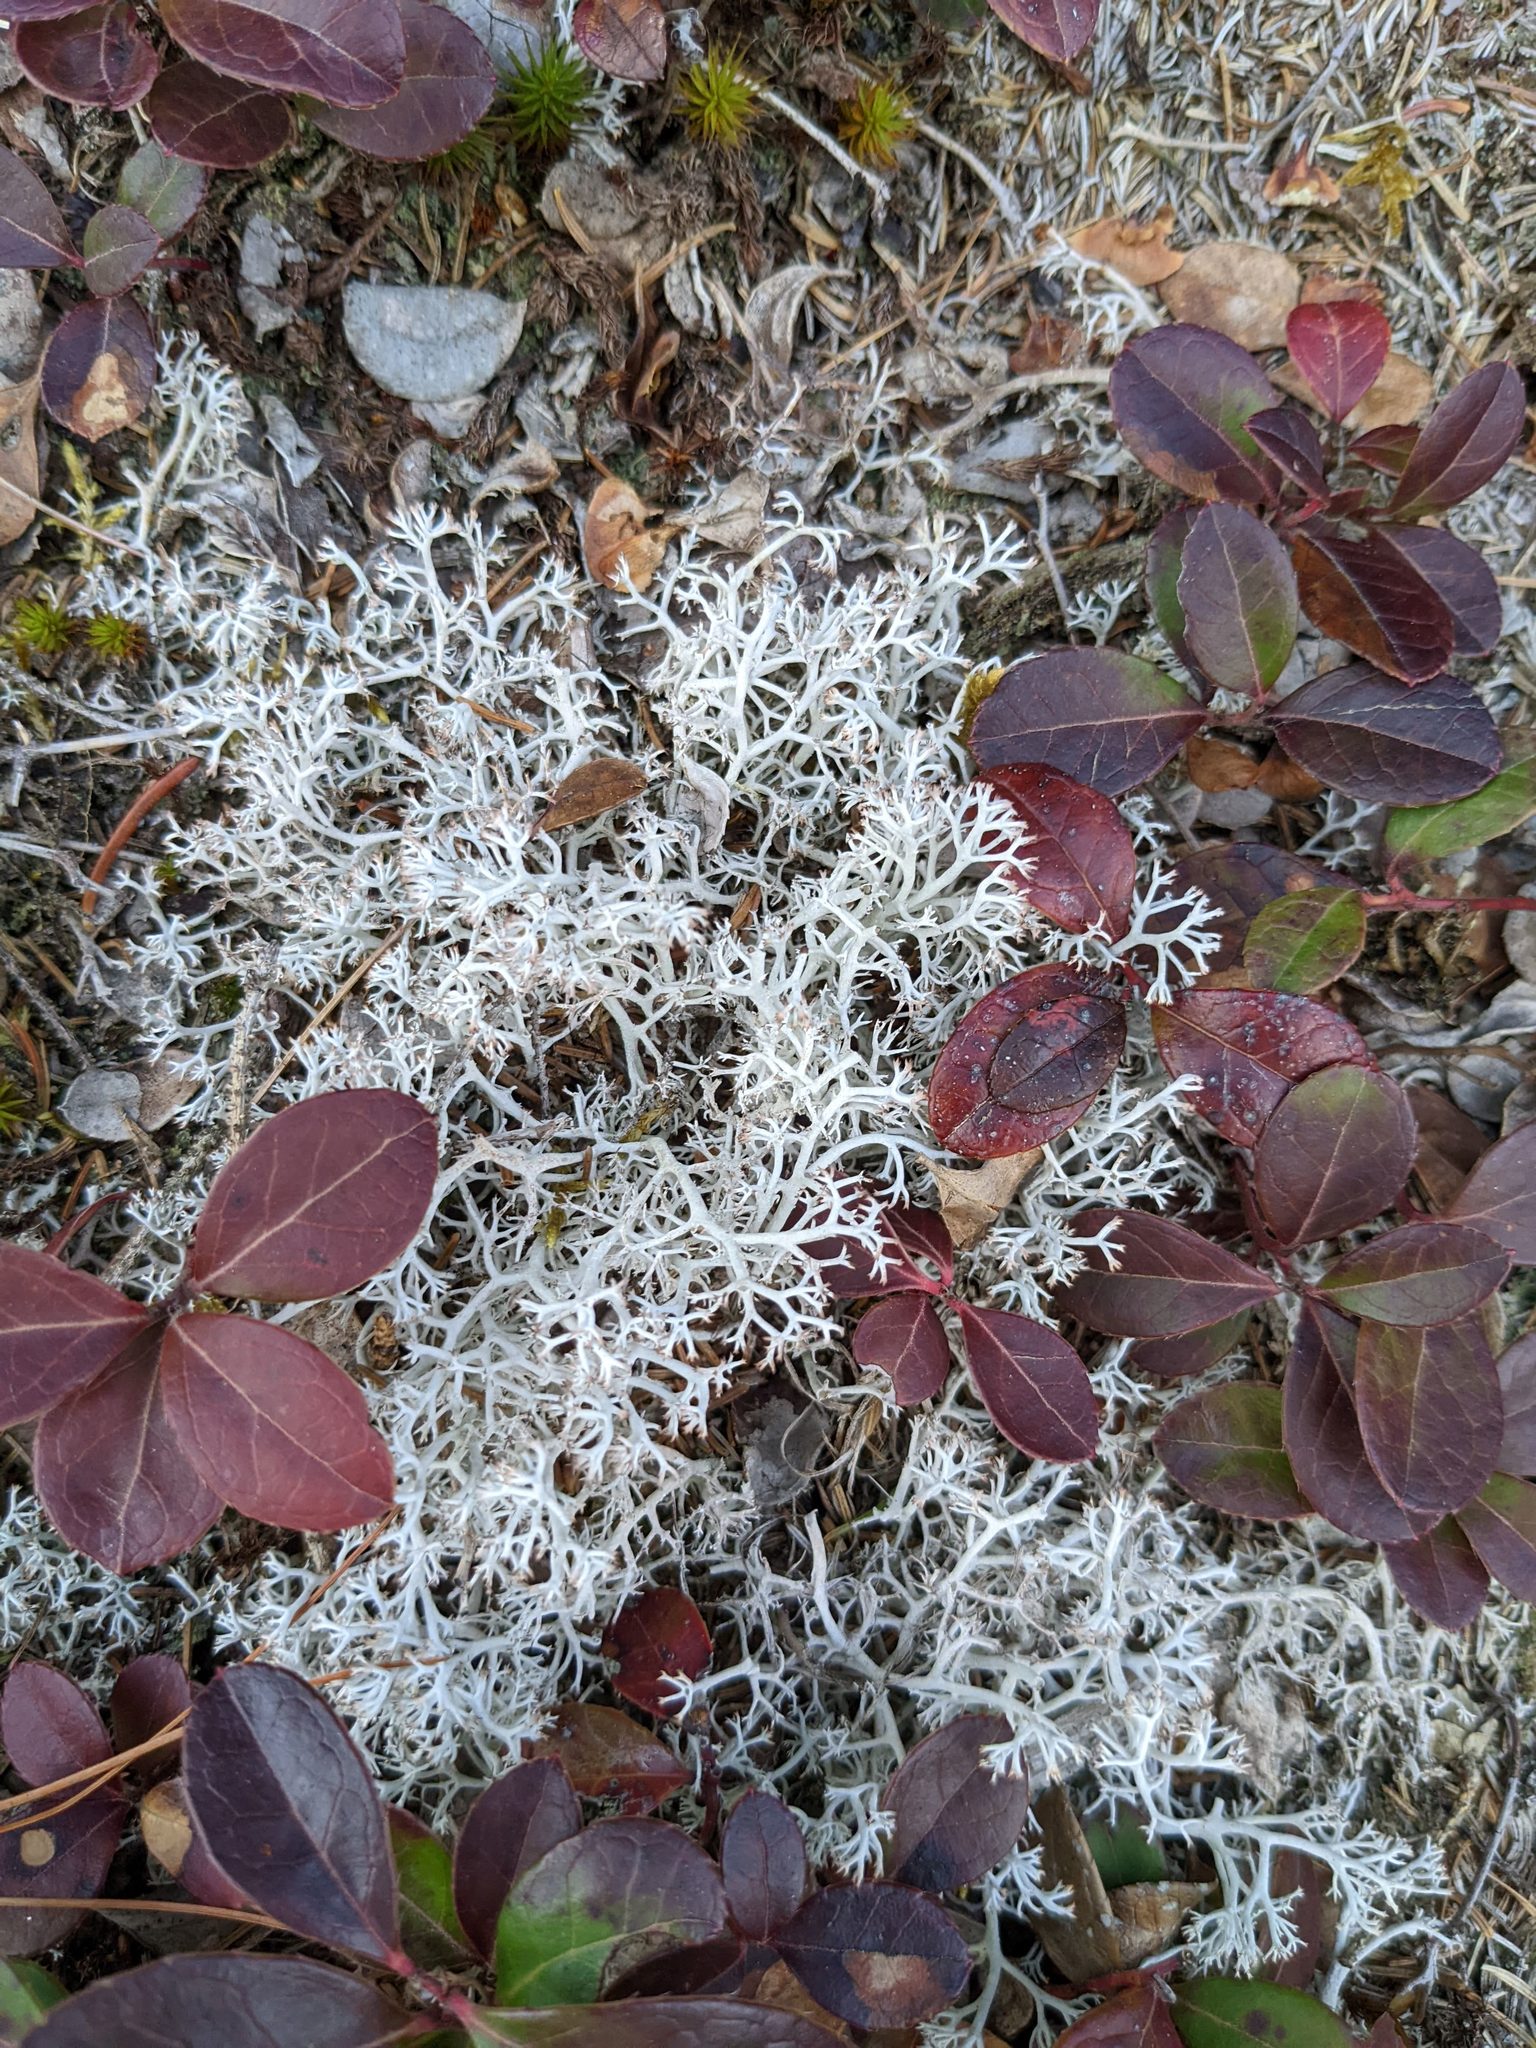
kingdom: Plantae
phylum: Tracheophyta
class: Magnoliopsida
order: Ericales
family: Ericaceae
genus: Gaultheria
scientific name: Gaultheria procumbens
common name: Checkerberry
